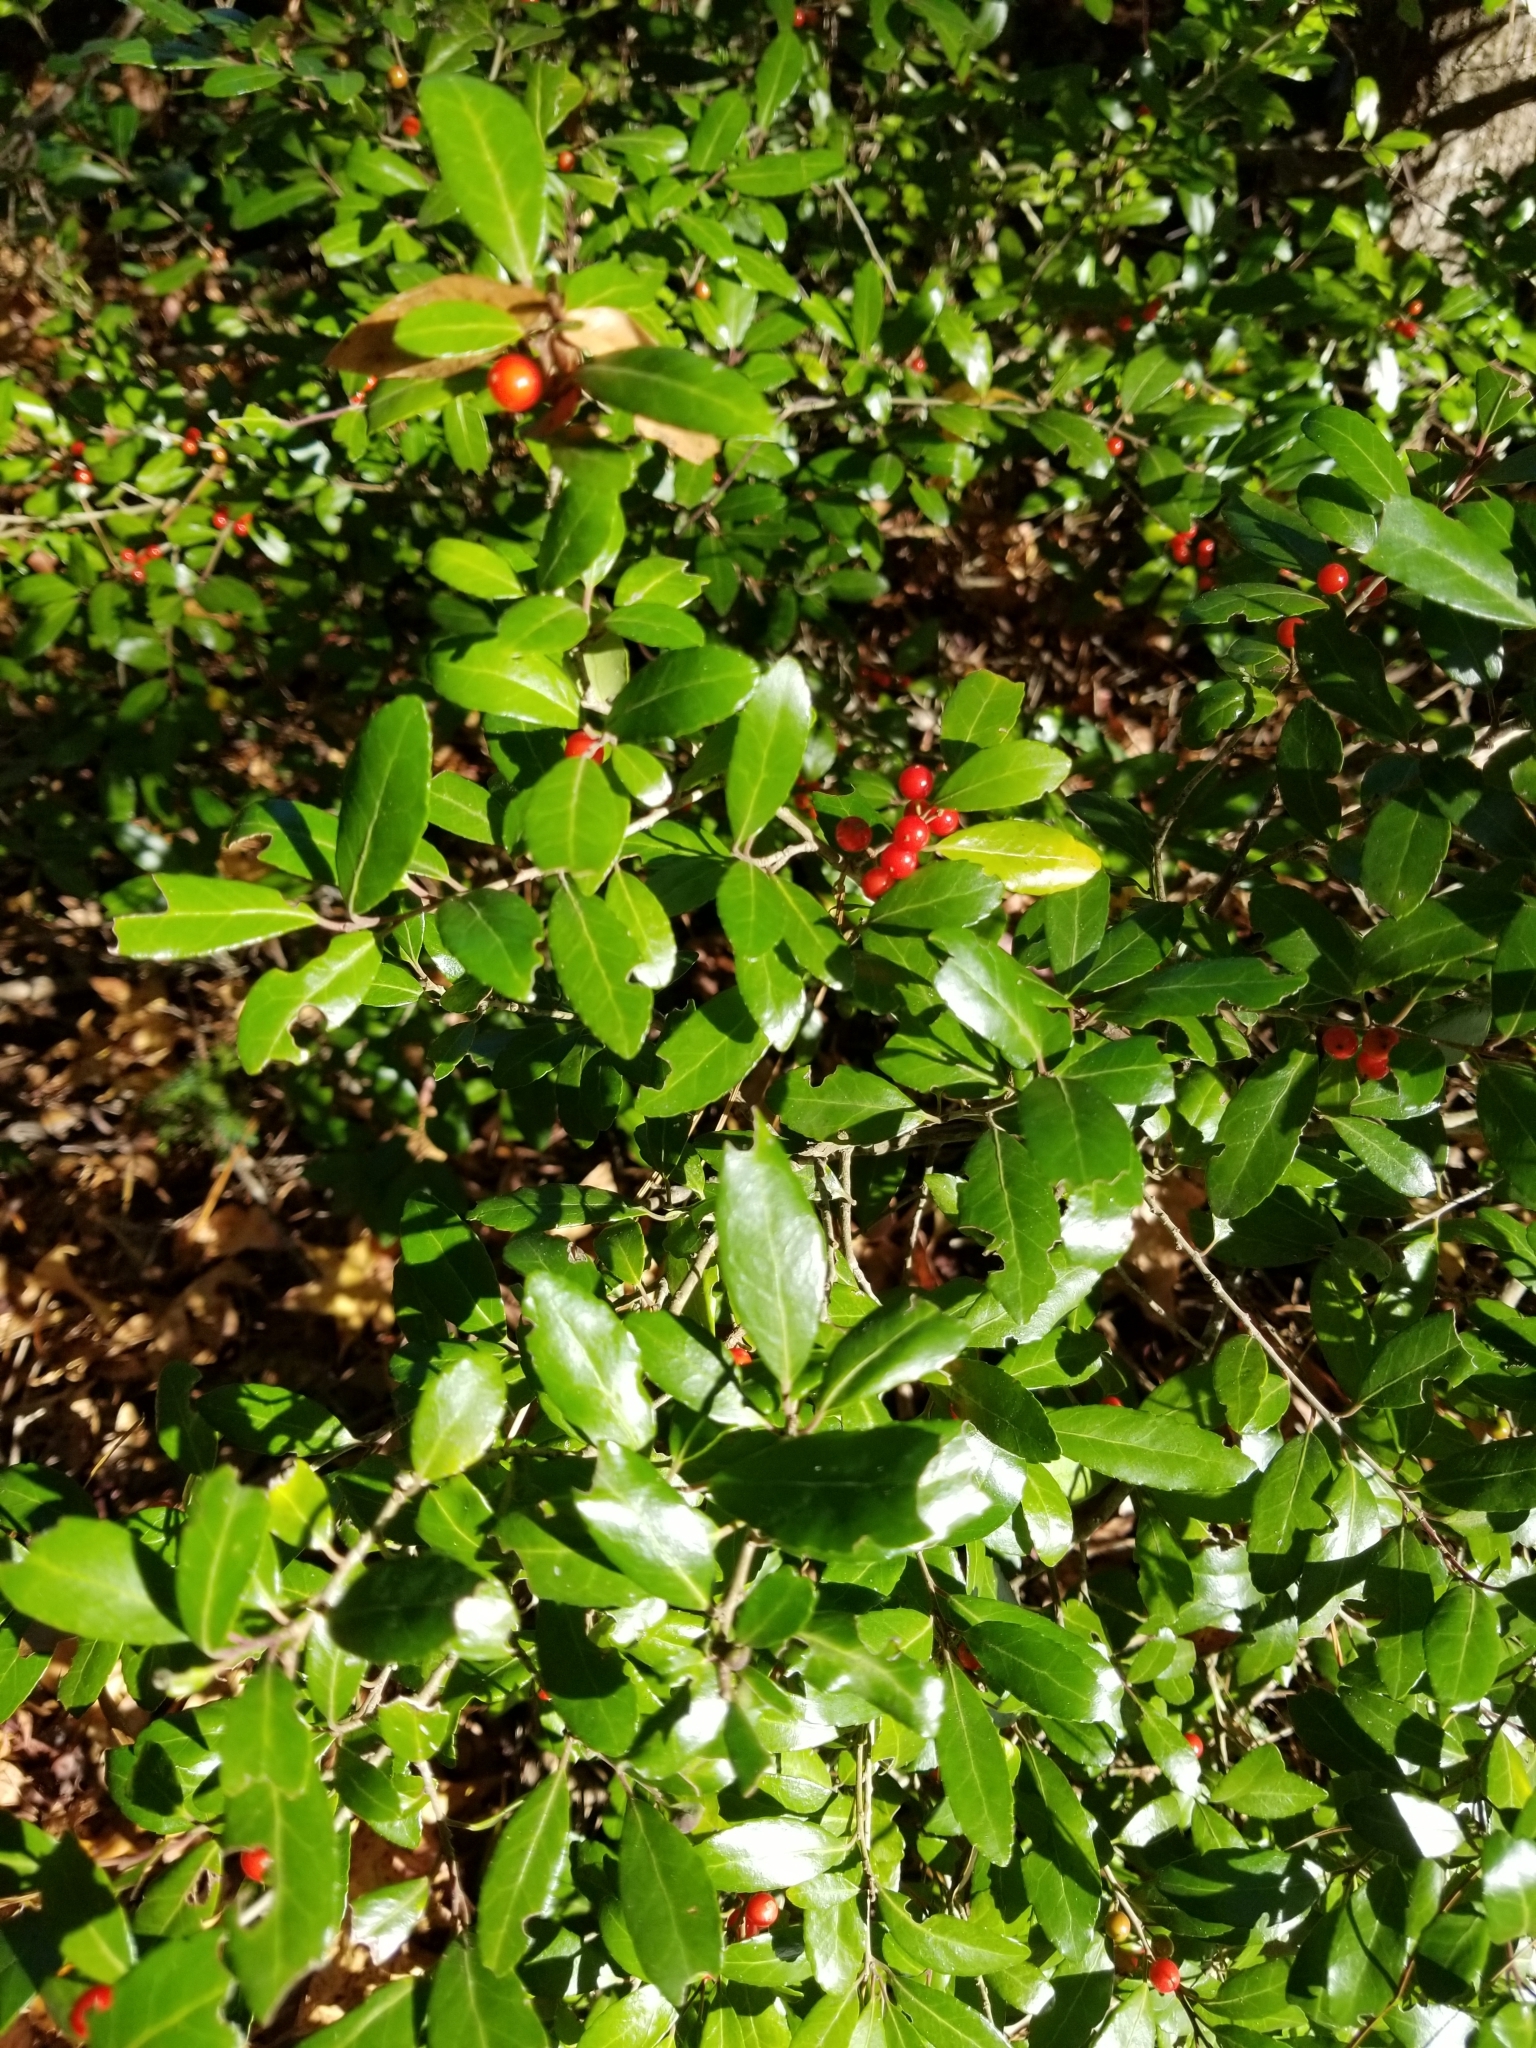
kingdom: Plantae
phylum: Tracheophyta
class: Magnoliopsida
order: Aquifoliales
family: Aquifoliaceae
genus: Ilex
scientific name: Ilex vomitoria
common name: Yaupon holly
